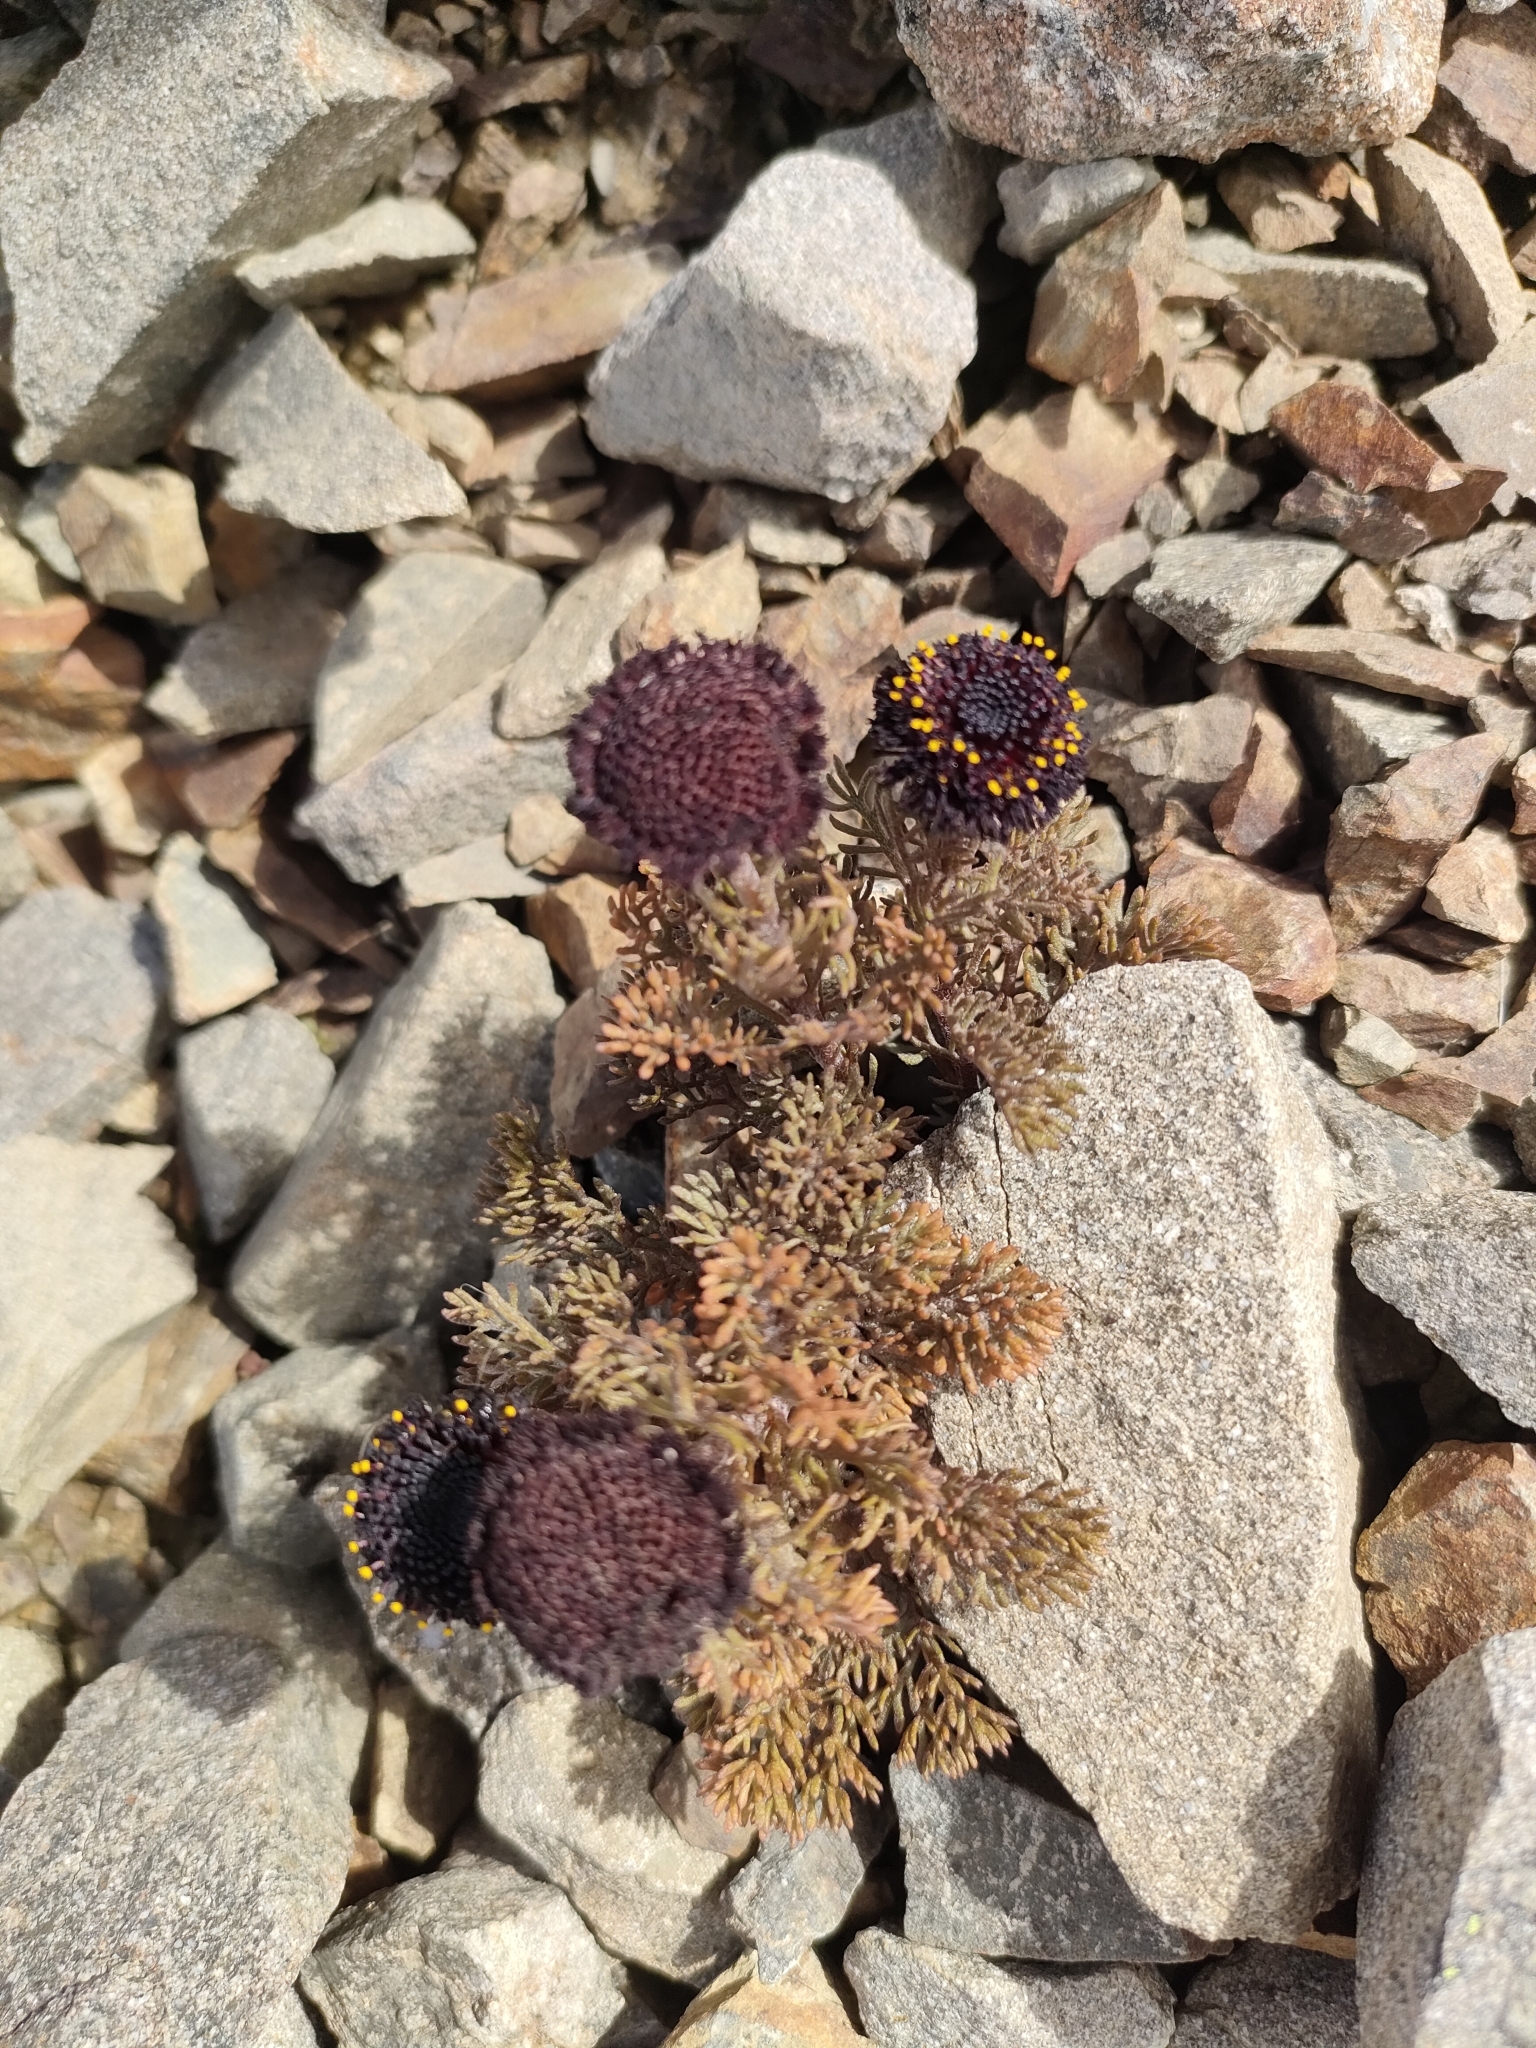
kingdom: Plantae
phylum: Tracheophyta
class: Magnoliopsida
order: Asterales
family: Asteraceae
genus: Leptinella
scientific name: Leptinella atrata
